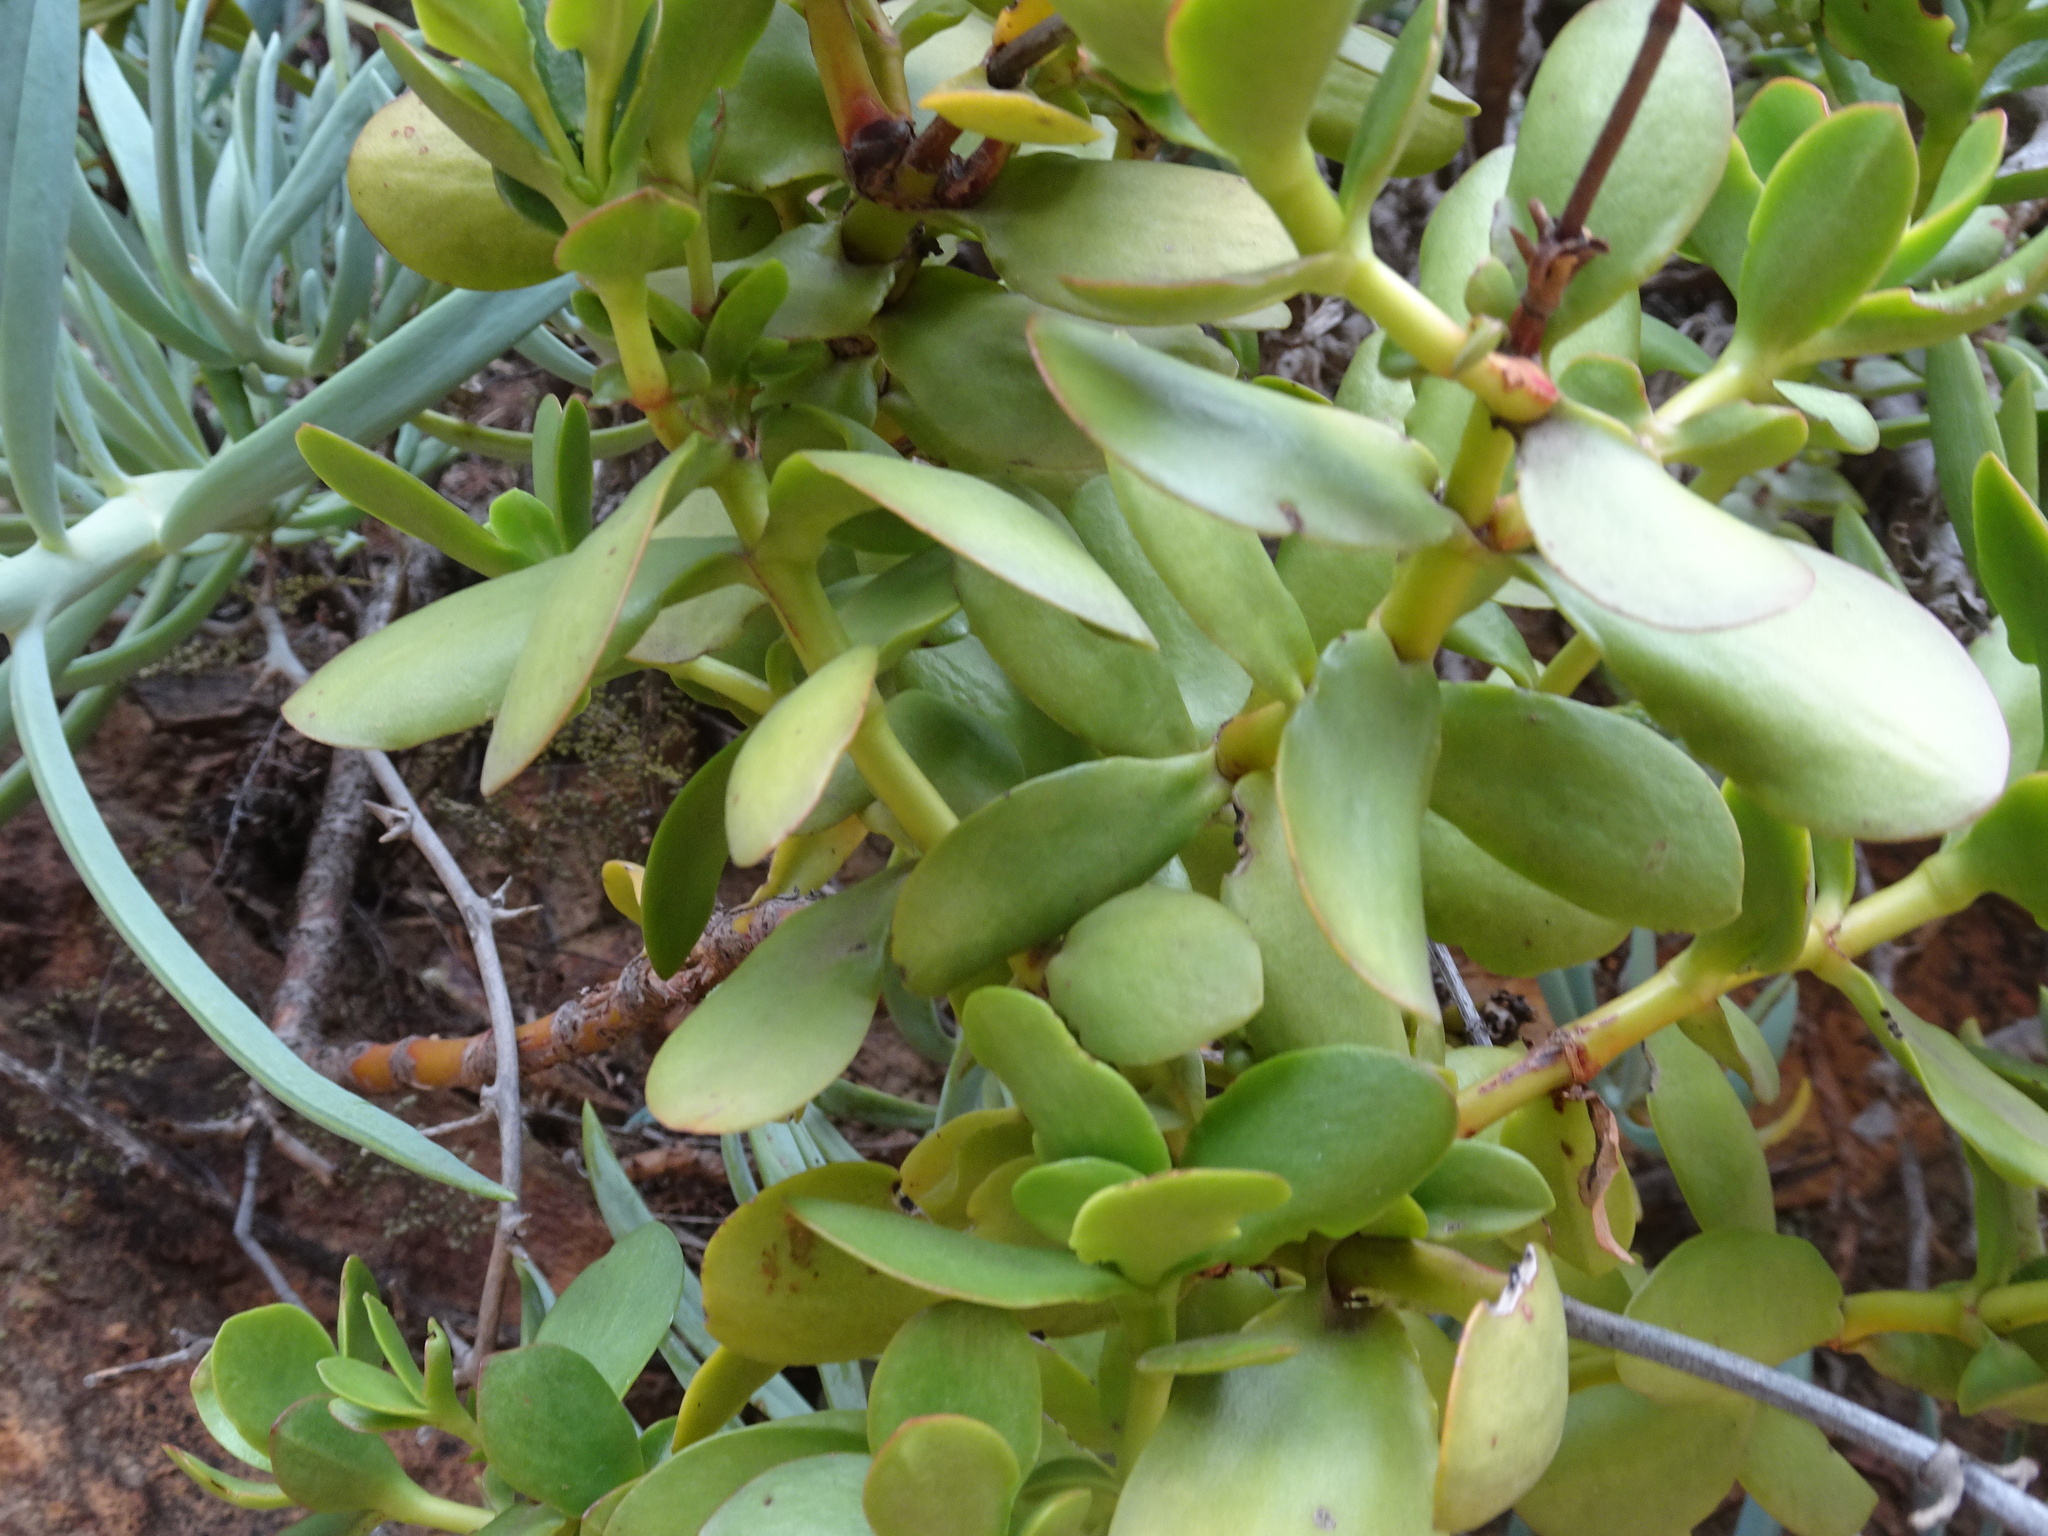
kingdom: Plantae
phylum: Tracheophyta
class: Magnoliopsida
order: Saxifragales
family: Crassulaceae
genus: Crassula
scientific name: Crassula cultrata
